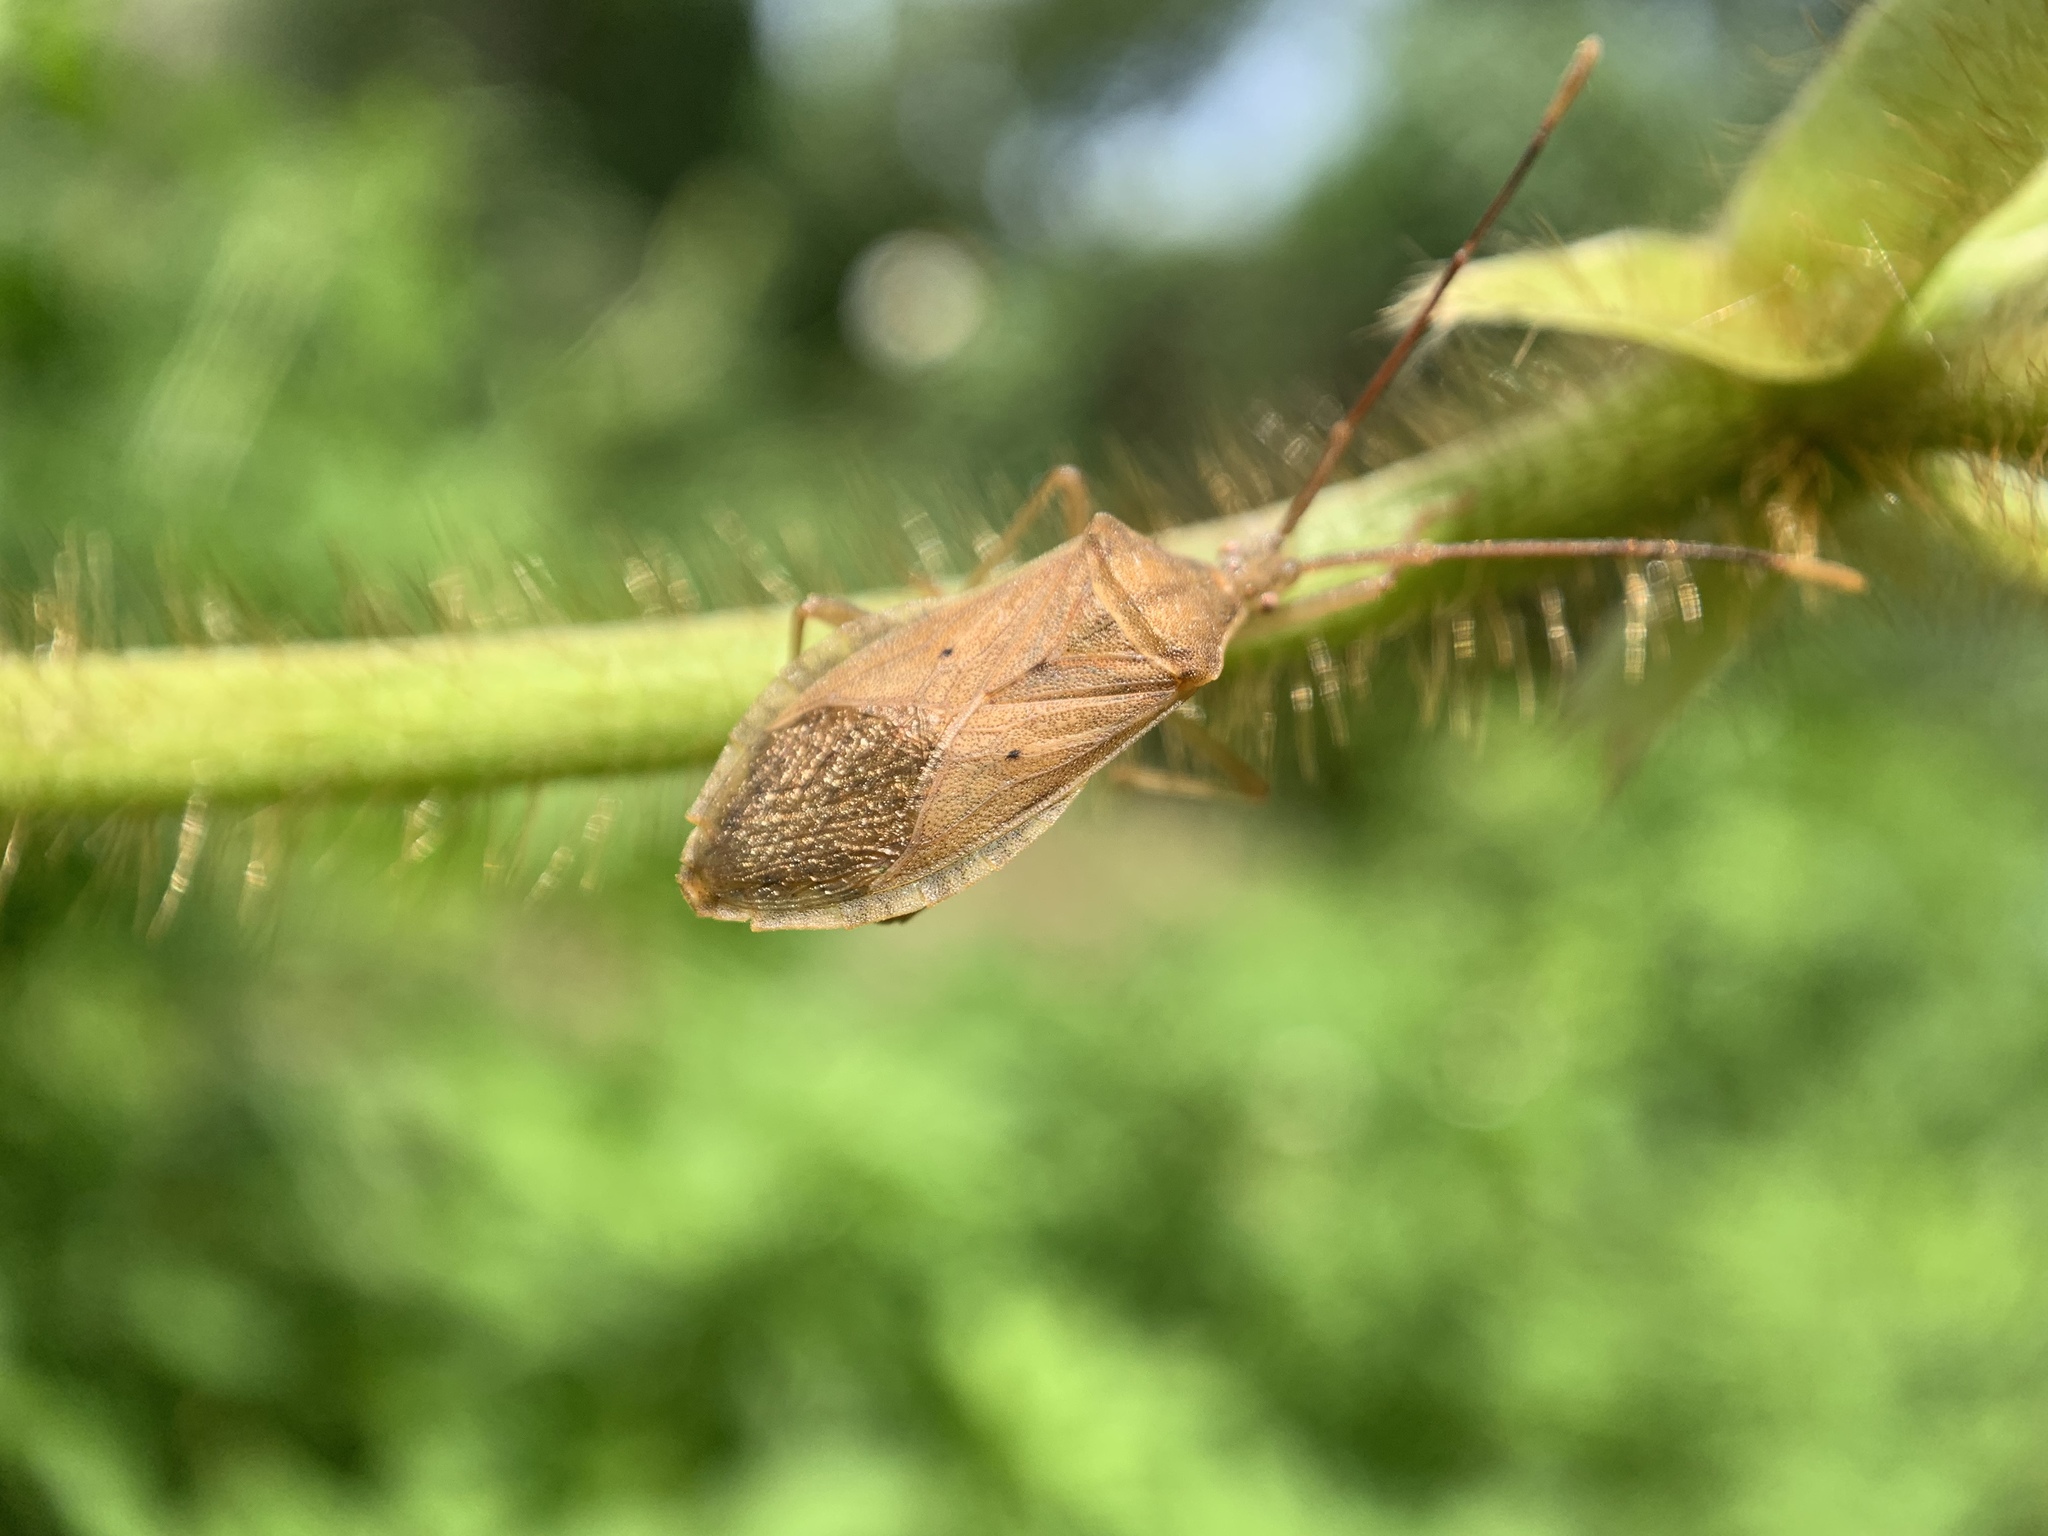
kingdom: Animalia
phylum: Arthropoda
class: Insecta
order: Hemiptera
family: Coreidae
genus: Homoeocerus
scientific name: Homoeocerus unipunctatus
